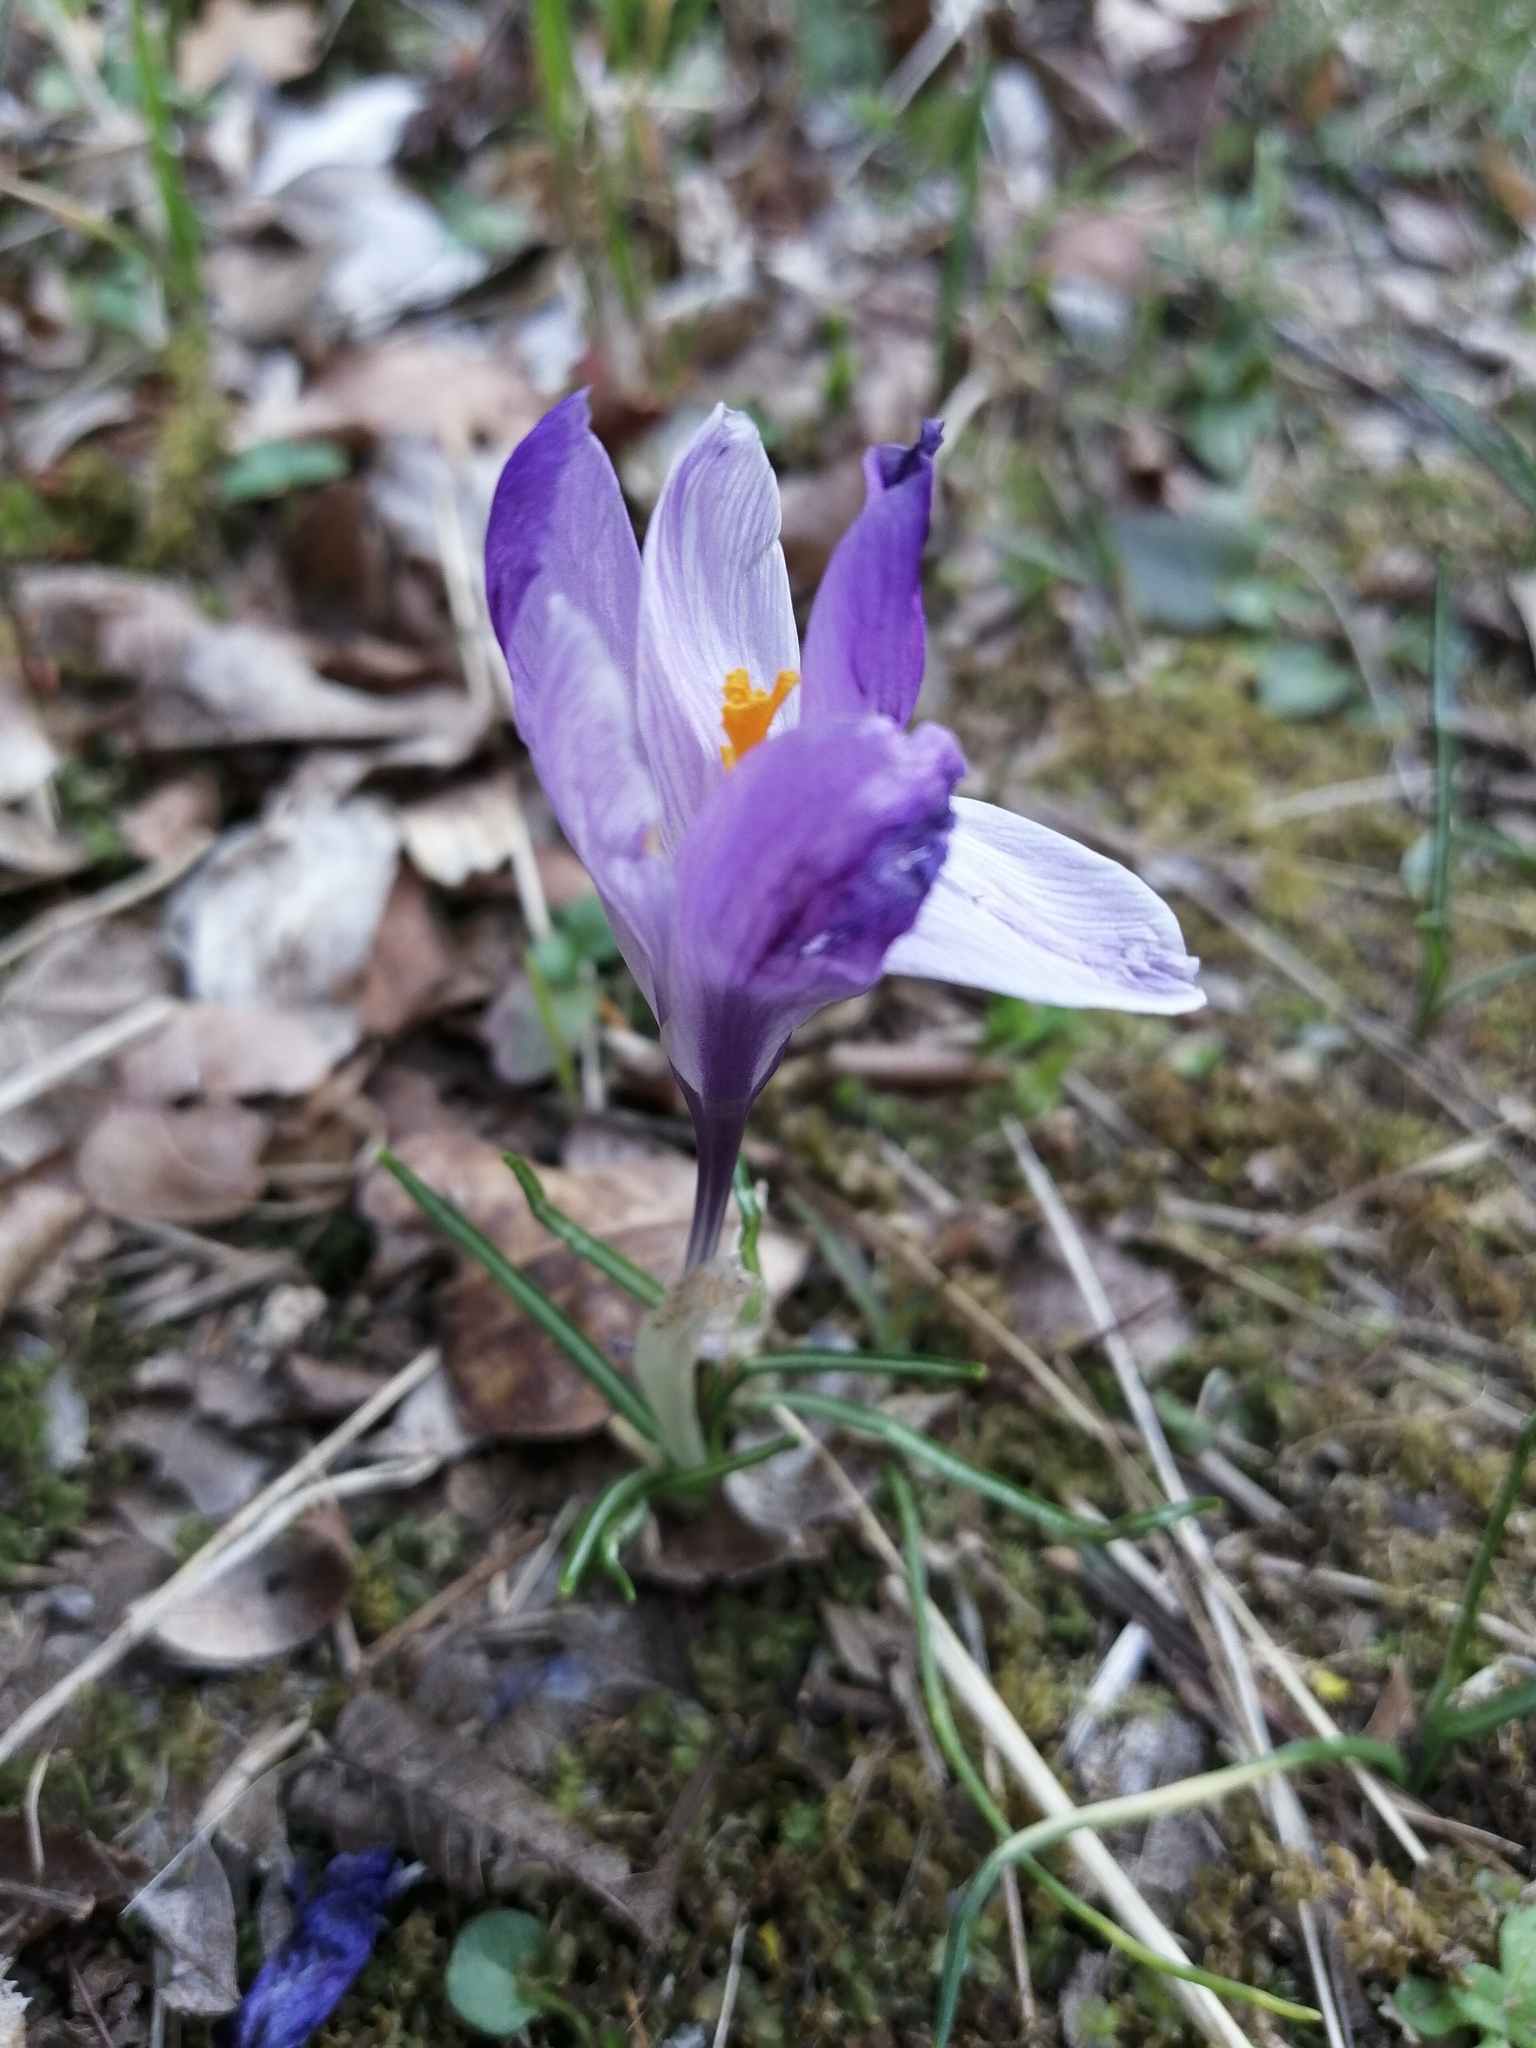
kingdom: Plantae
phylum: Tracheophyta
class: Liliopsida
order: Asparagales
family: Iridaceae
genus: Crocus
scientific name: Crocus neapolitanus
